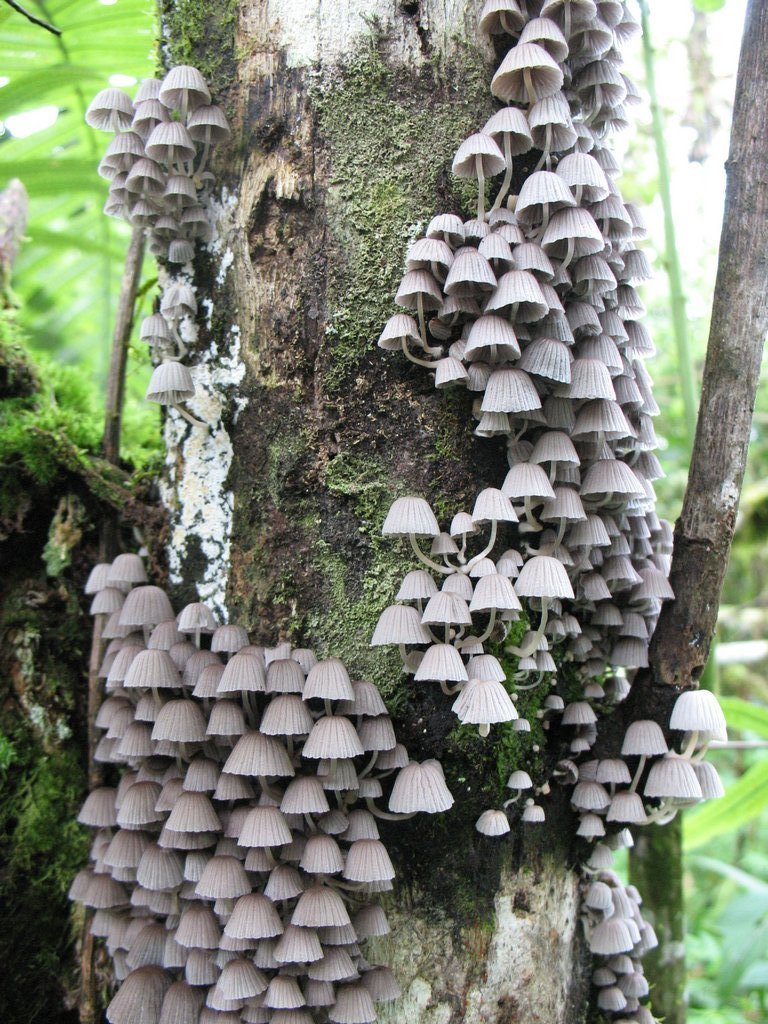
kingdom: Fungi
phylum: Basidiomycota
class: Agaricomycetes
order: Agaricales
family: Psathyrellaceae
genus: Coprinellus
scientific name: Coprinellus disseminatus
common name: Fairies' bonnets
